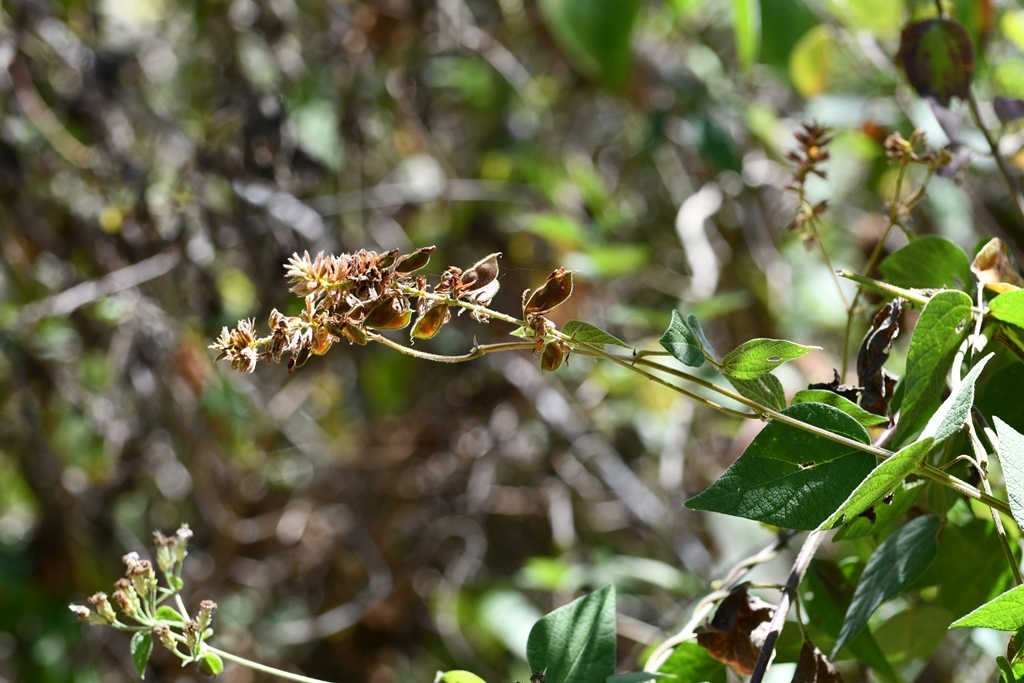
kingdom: Plantae
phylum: Tracheophyta
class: Magnoliopsida
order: Fabales
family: Fabaceae
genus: Rhynchosia
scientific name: Rhynchosia longeracemosa
